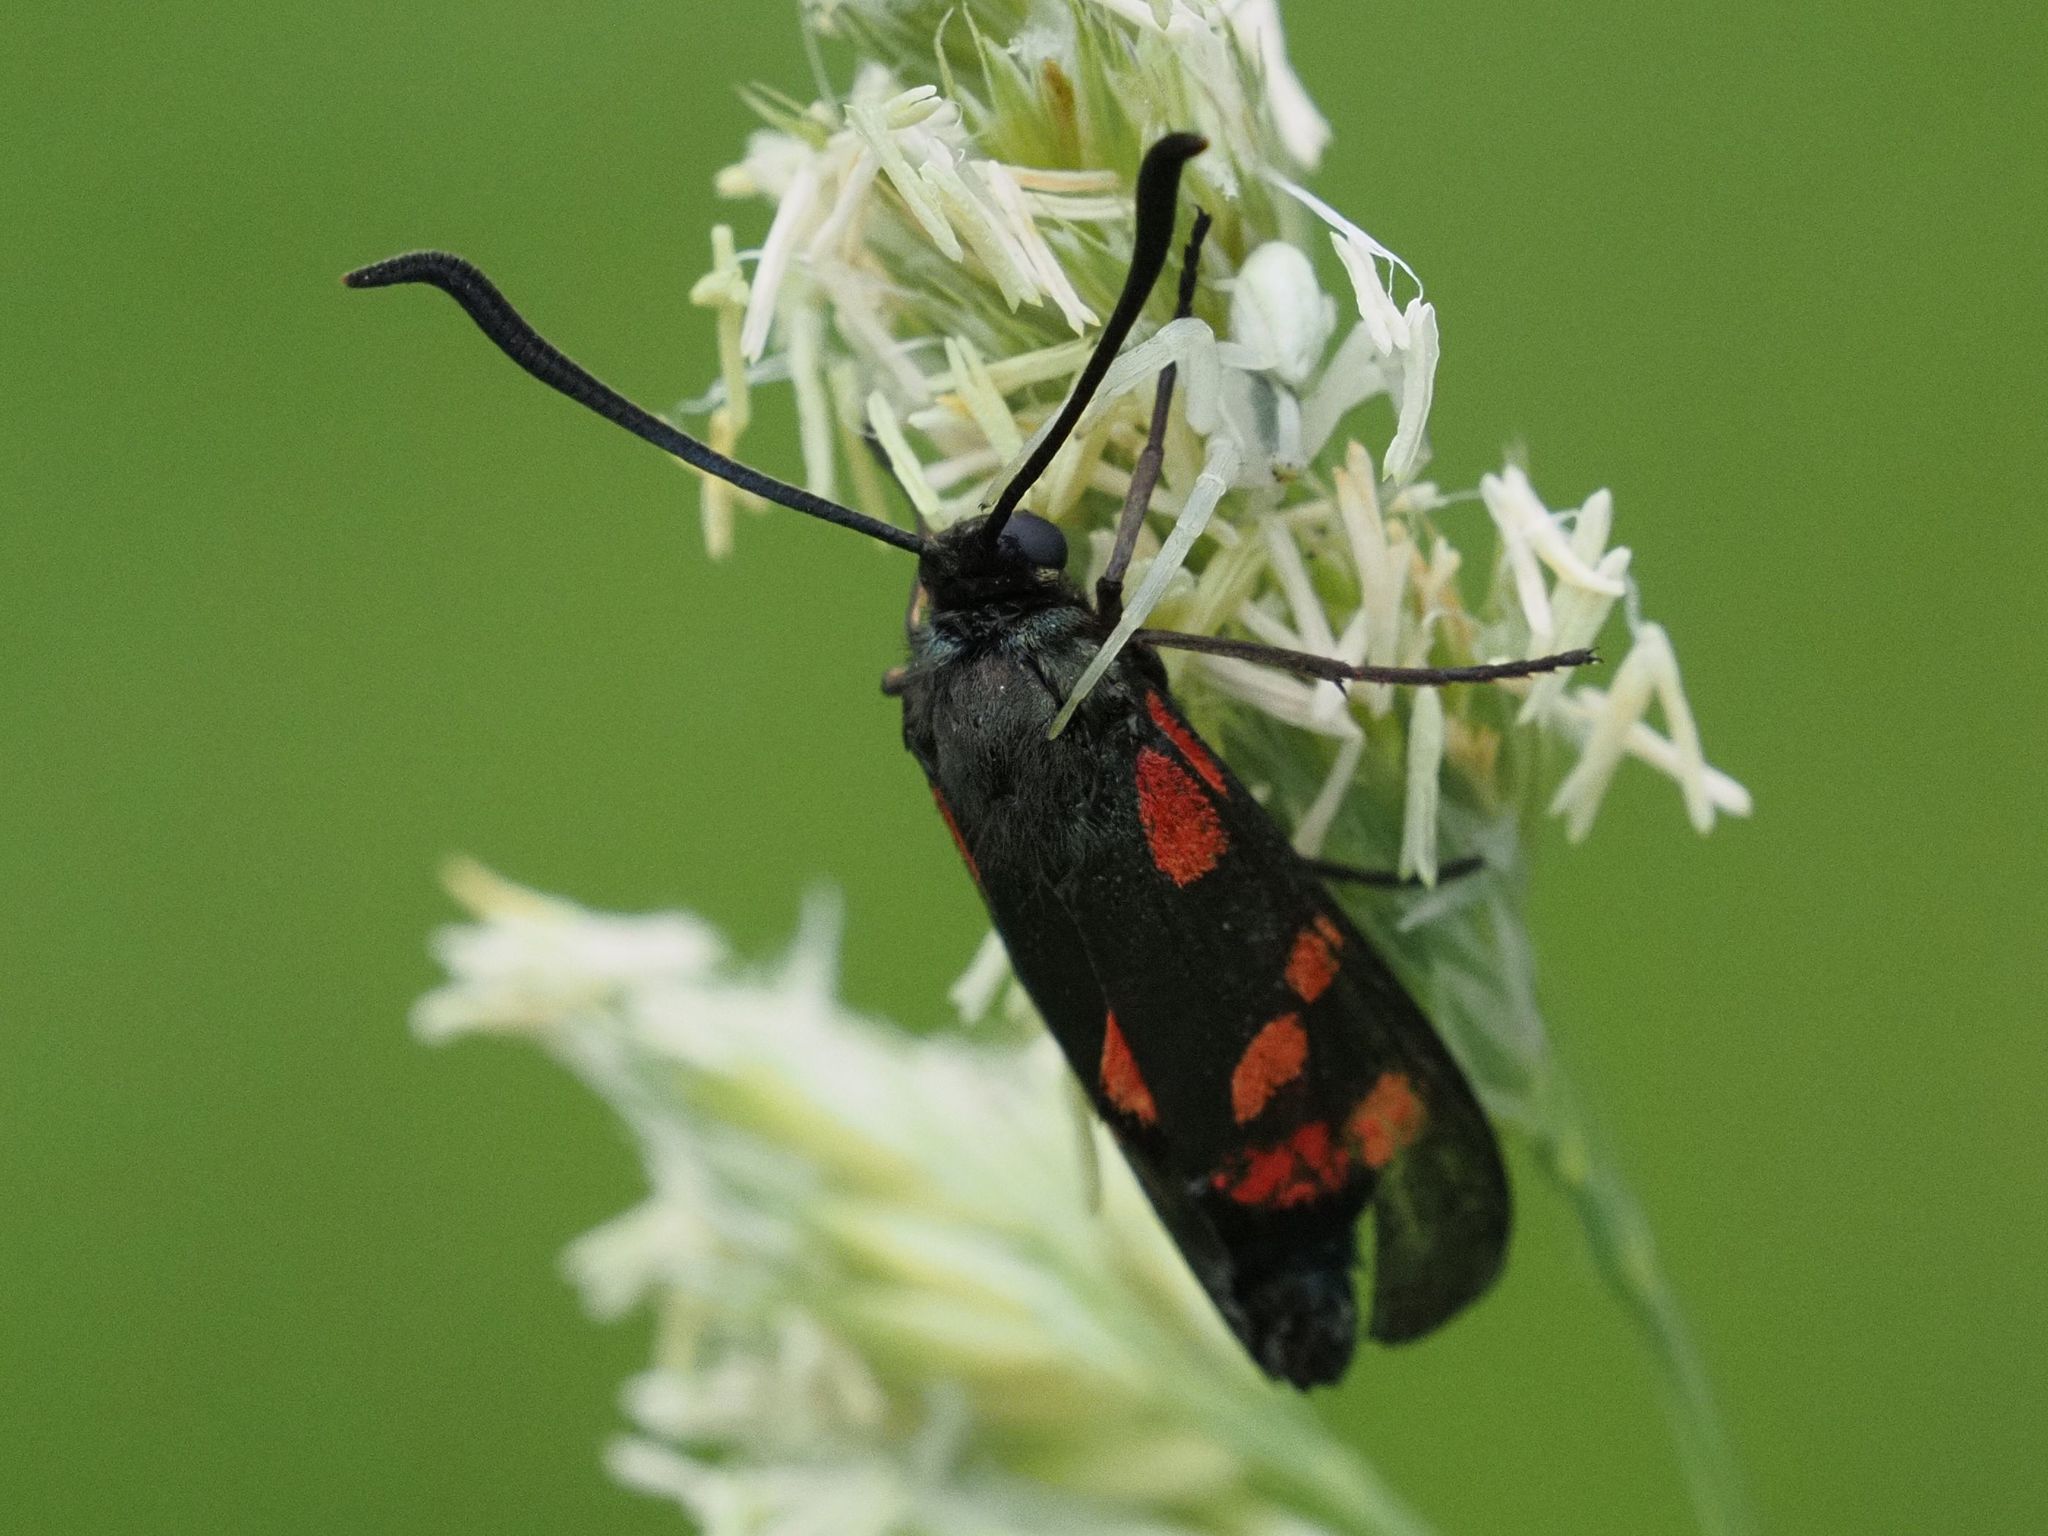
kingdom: Animalia
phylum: Arthropoda
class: Insecta
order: Lepidoptera
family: Zygaenidae
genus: Zygaena
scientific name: Zygaena filipendulae
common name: Six-spot burnet
